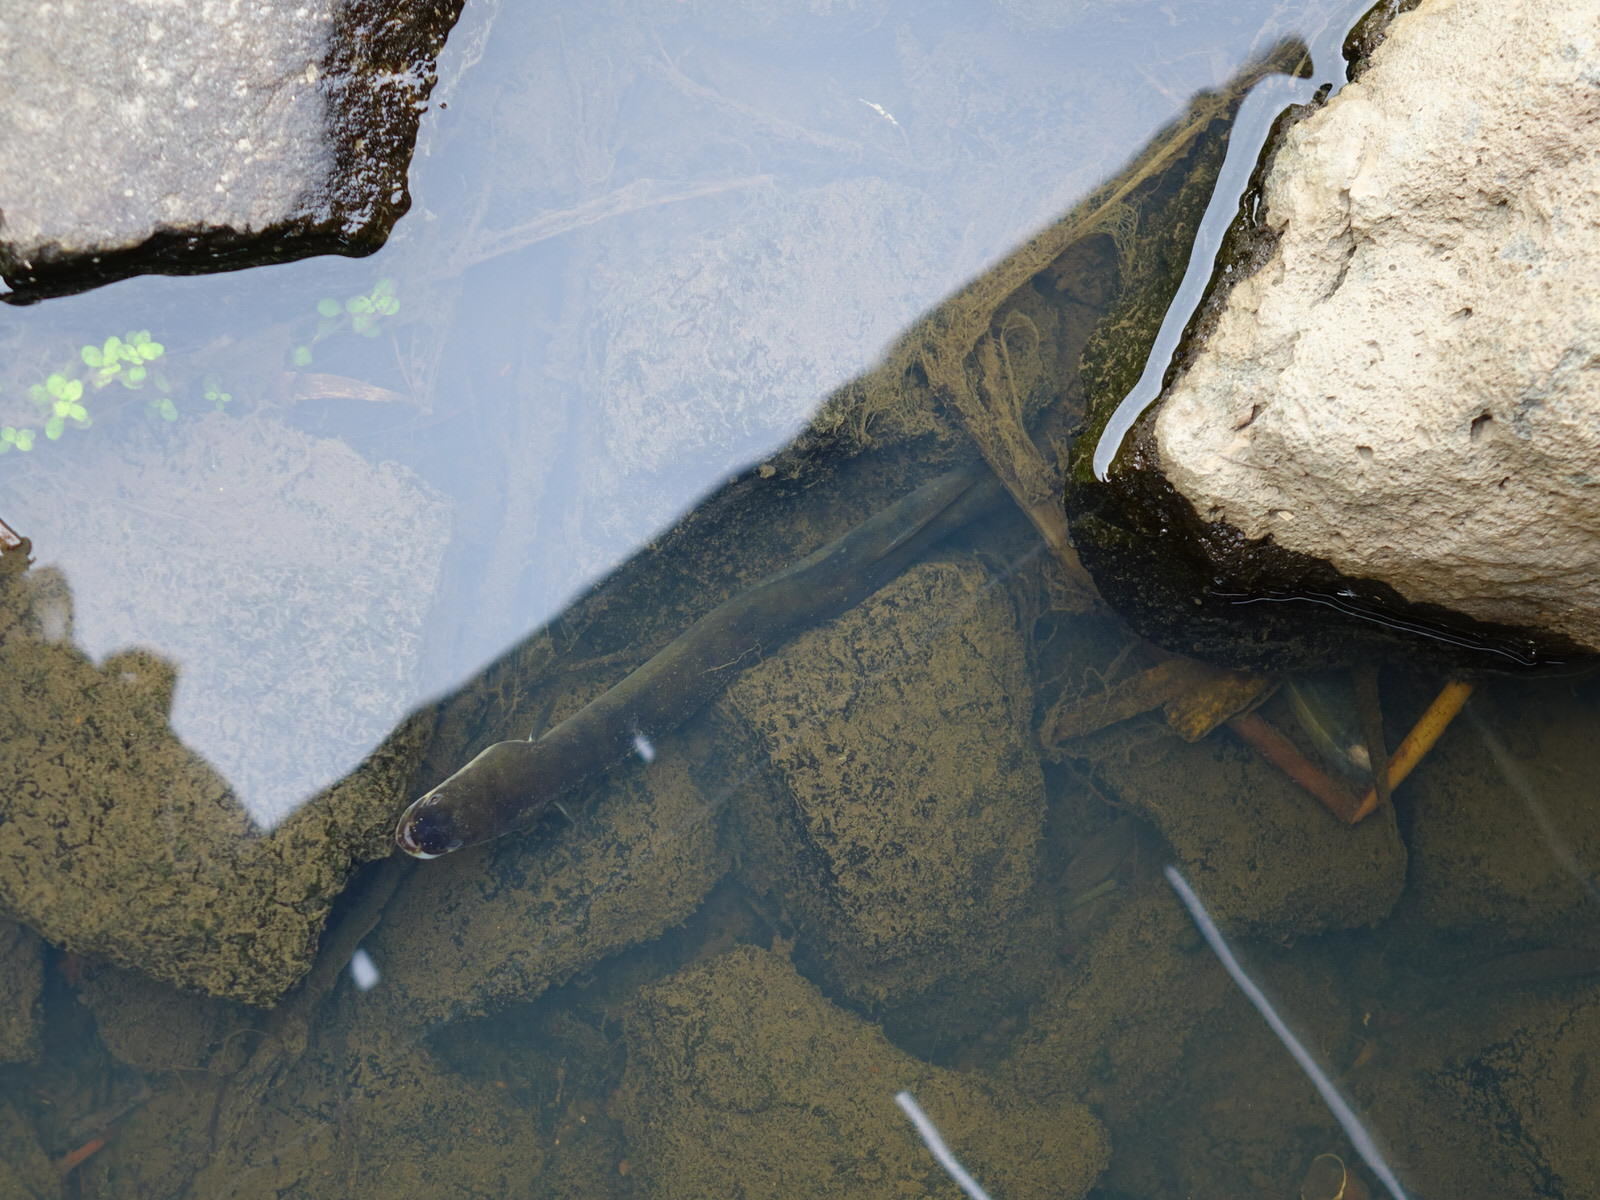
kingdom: Animalia
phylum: Chordata
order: Anguilliformes
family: Anguillidae
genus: Anguilla
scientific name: Anguilla australis
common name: Shortfin eel
